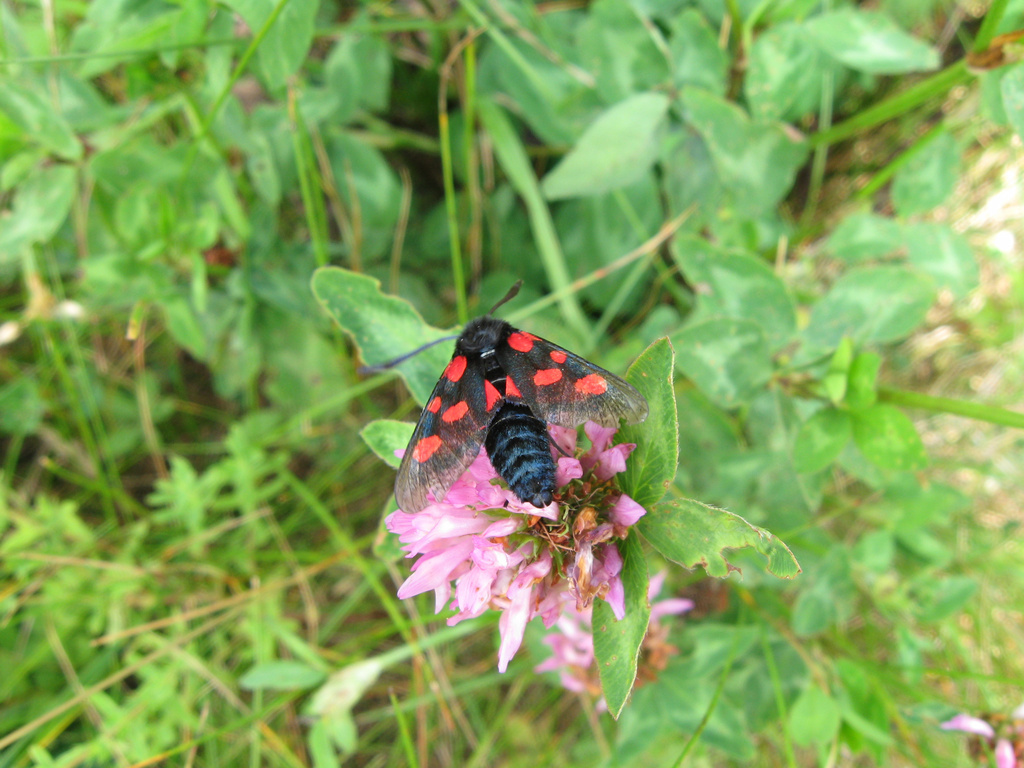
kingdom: Animalia
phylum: Arthropoda
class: Insecta
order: Lepidoptera
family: Zygaenidae
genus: Zygaena
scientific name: Zygaena lonicerae
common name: Narrow-bordered five-spot burnet
